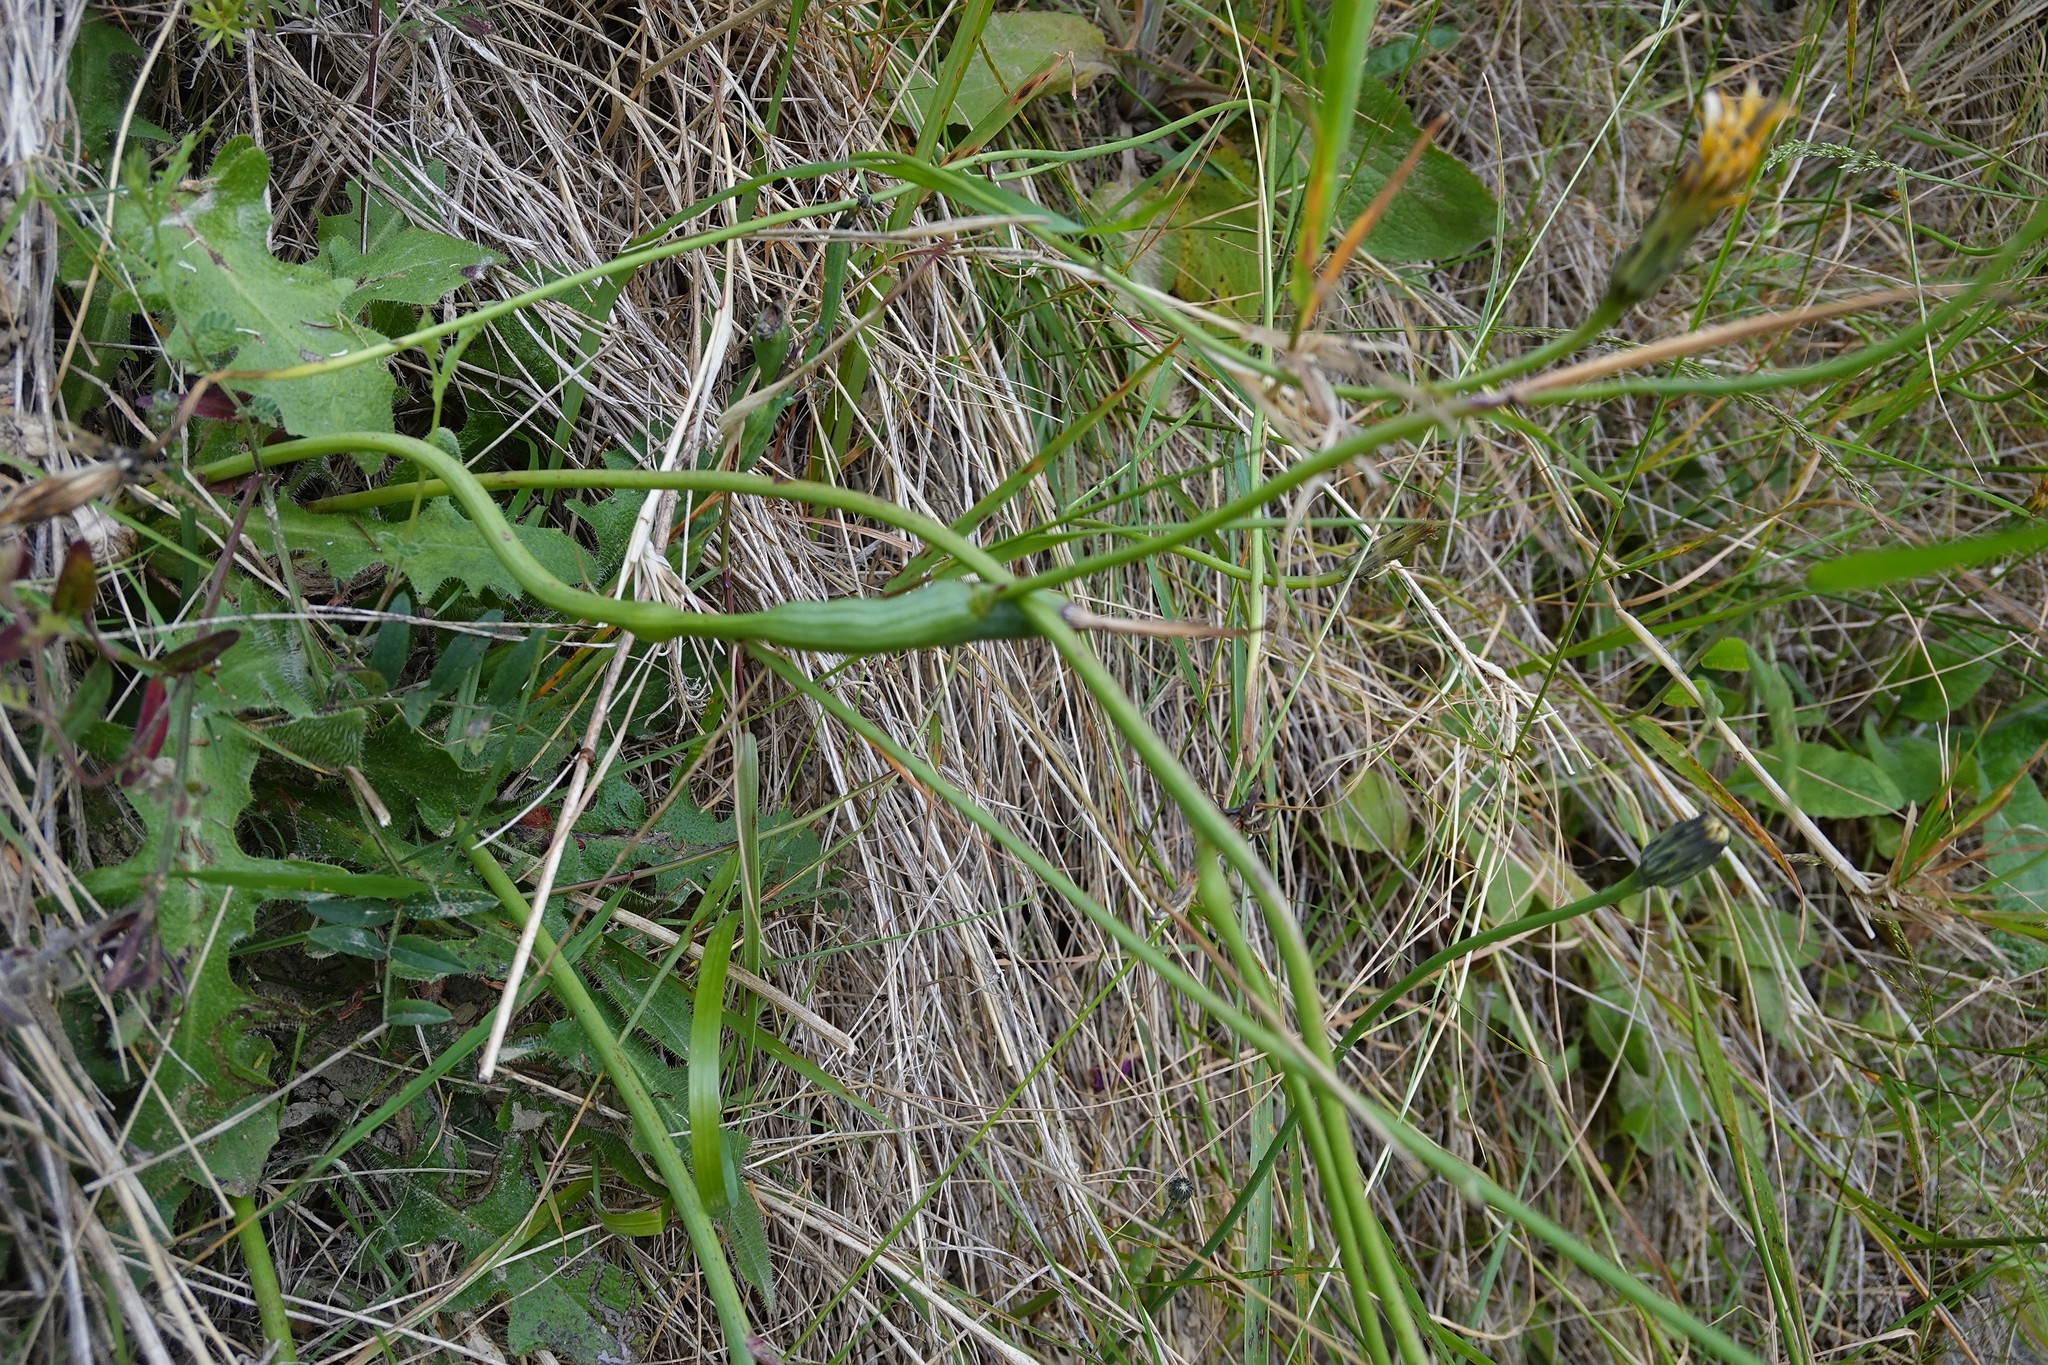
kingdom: Animalia
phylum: Arthropoda
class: Insecta
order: Hymenoptera
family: Cynipidae
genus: Phanacis
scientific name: Phanacis hypochoeridis
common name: Gall wasp
